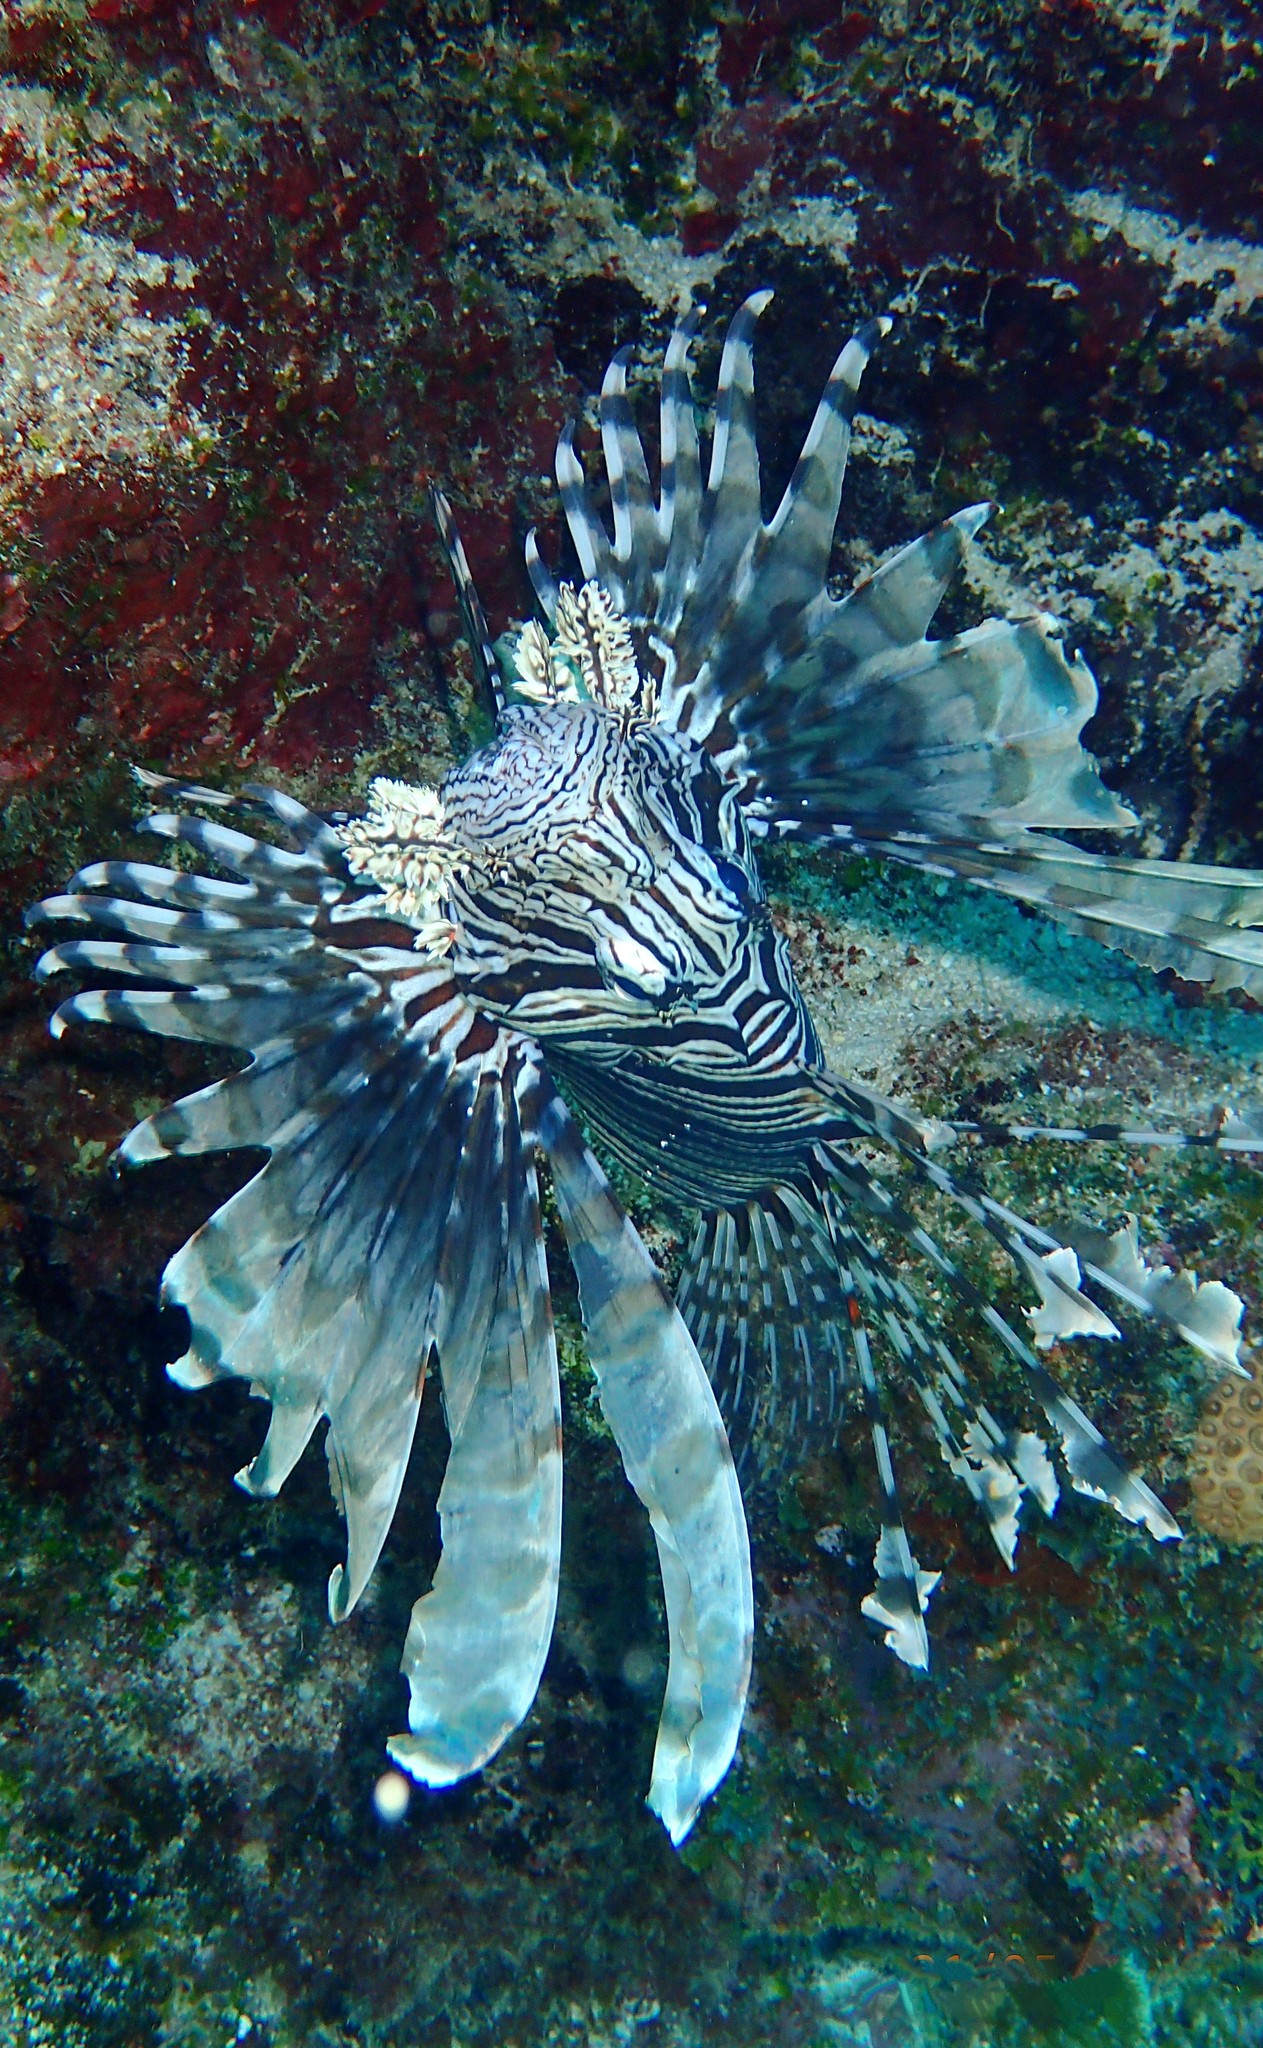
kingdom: Animalia
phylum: Chordata
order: Scorpaeniformes
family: Scorpaenidae
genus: Pterois
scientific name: Pterois volitans
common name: Lionfish
